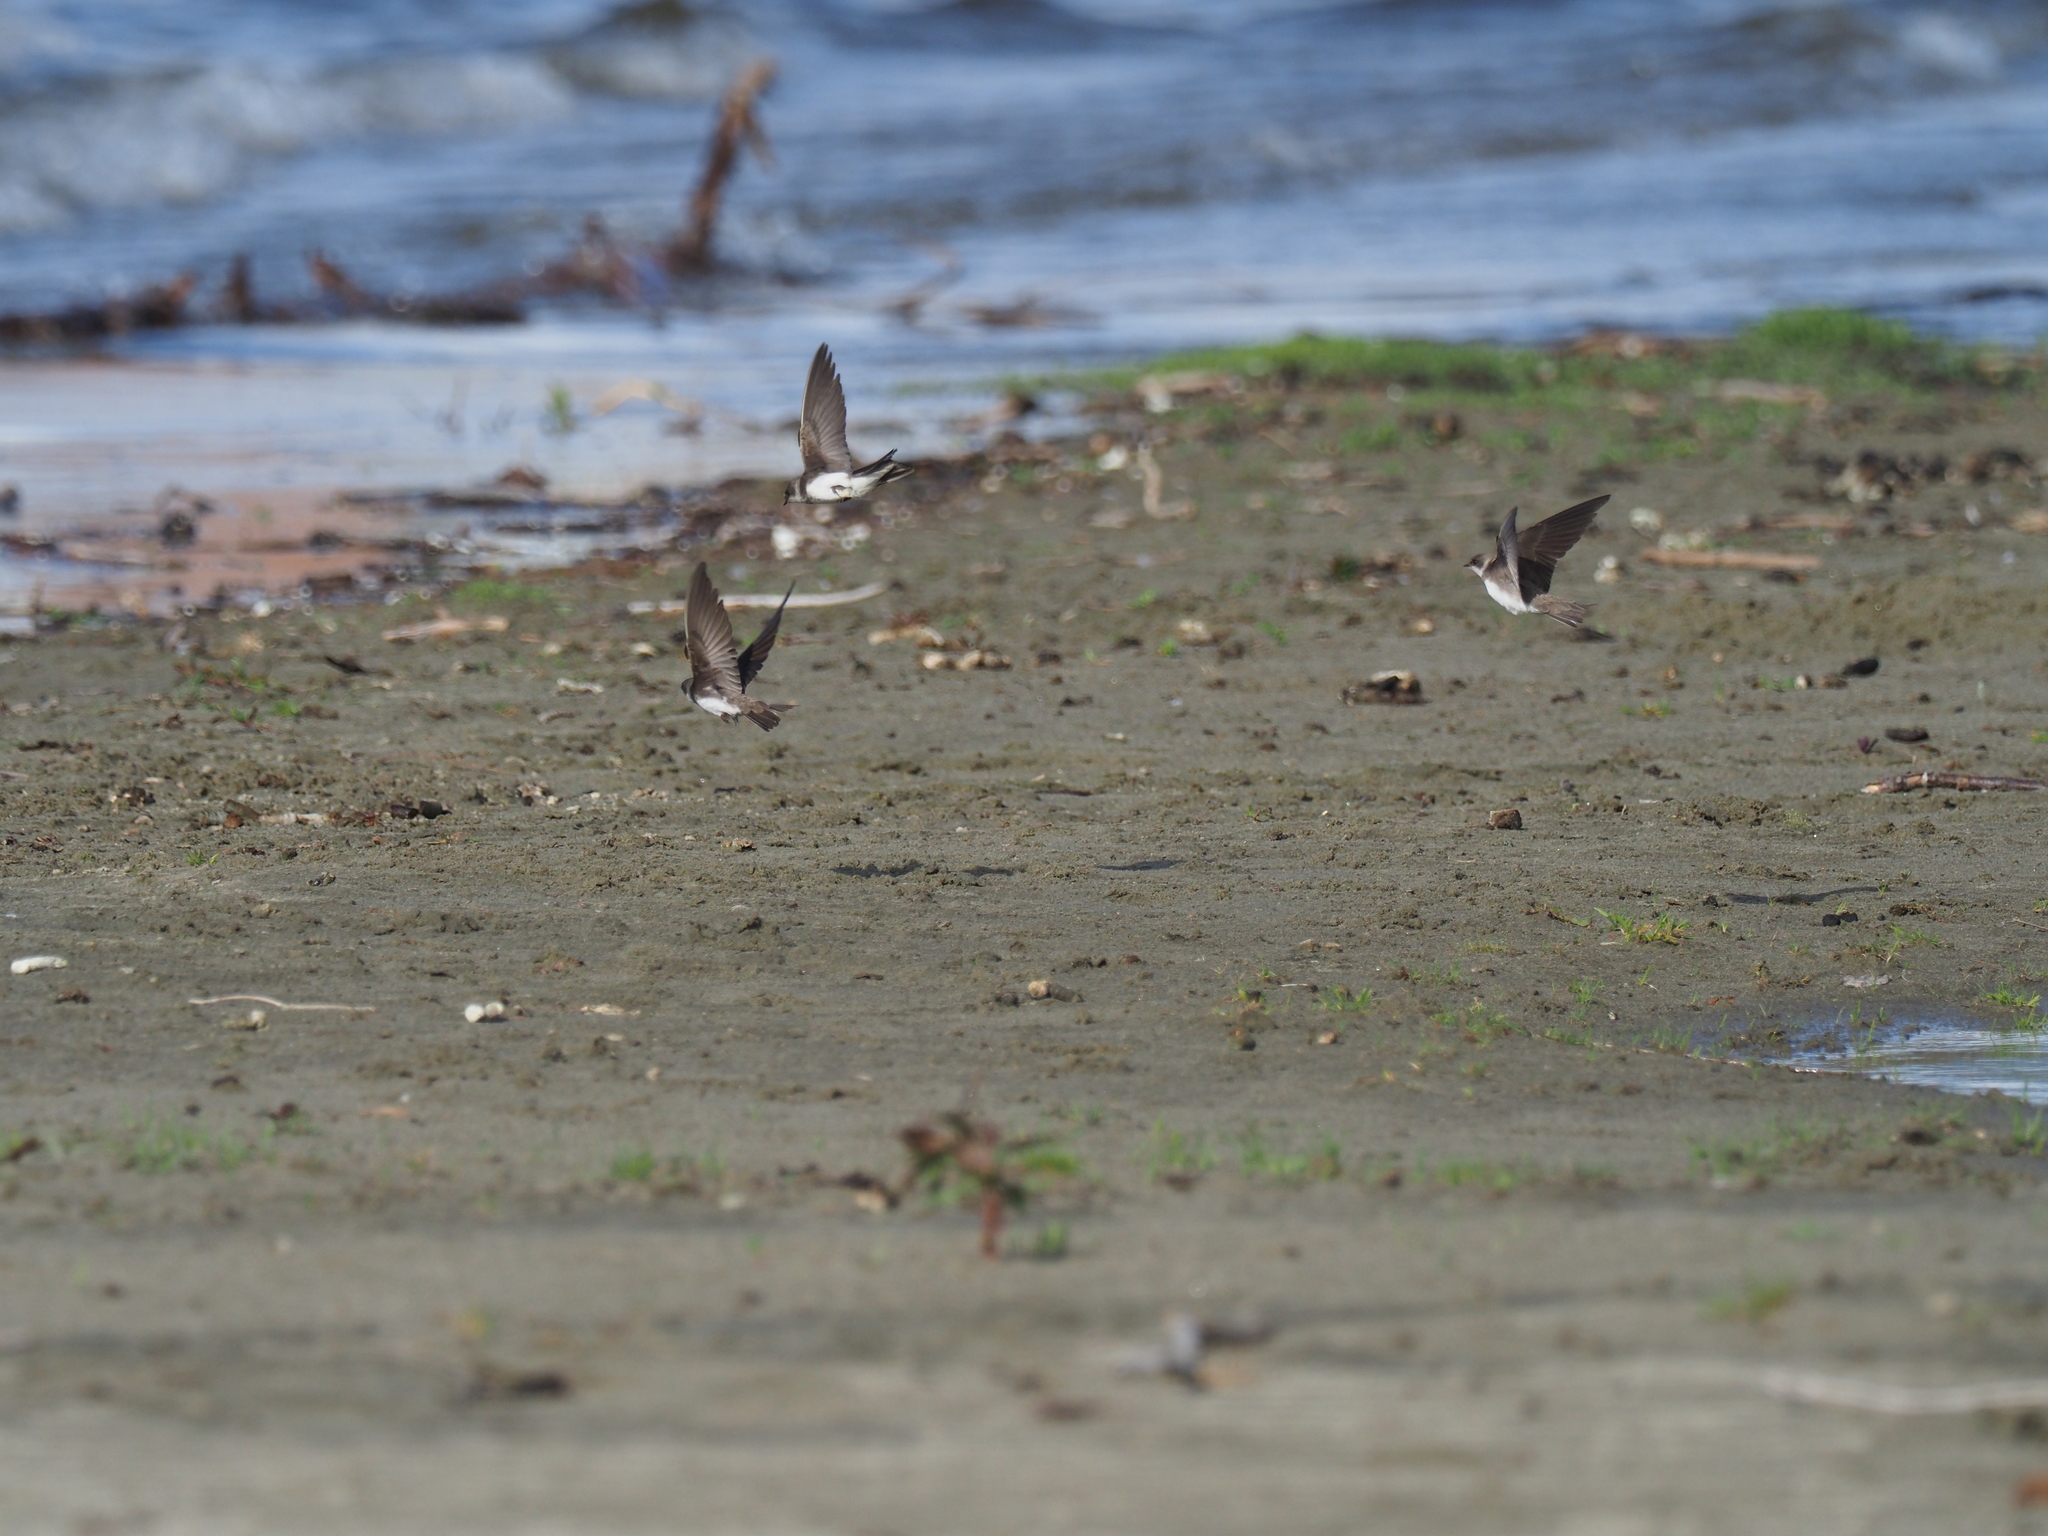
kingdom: Animalia
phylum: Chordata
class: Aves
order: Passeriformes
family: Hirundinidae
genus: Riparia
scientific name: Riparia riparia
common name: Sand martin
